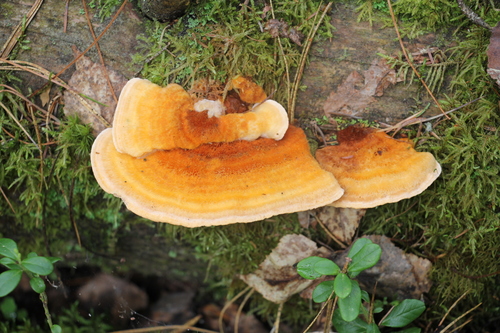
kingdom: Fungi
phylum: Basidiomycota
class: Agaricomycetes
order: Polyporales
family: Pycnoporellaceae
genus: Pycnoporellus
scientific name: Pycnoporellus fulgens
